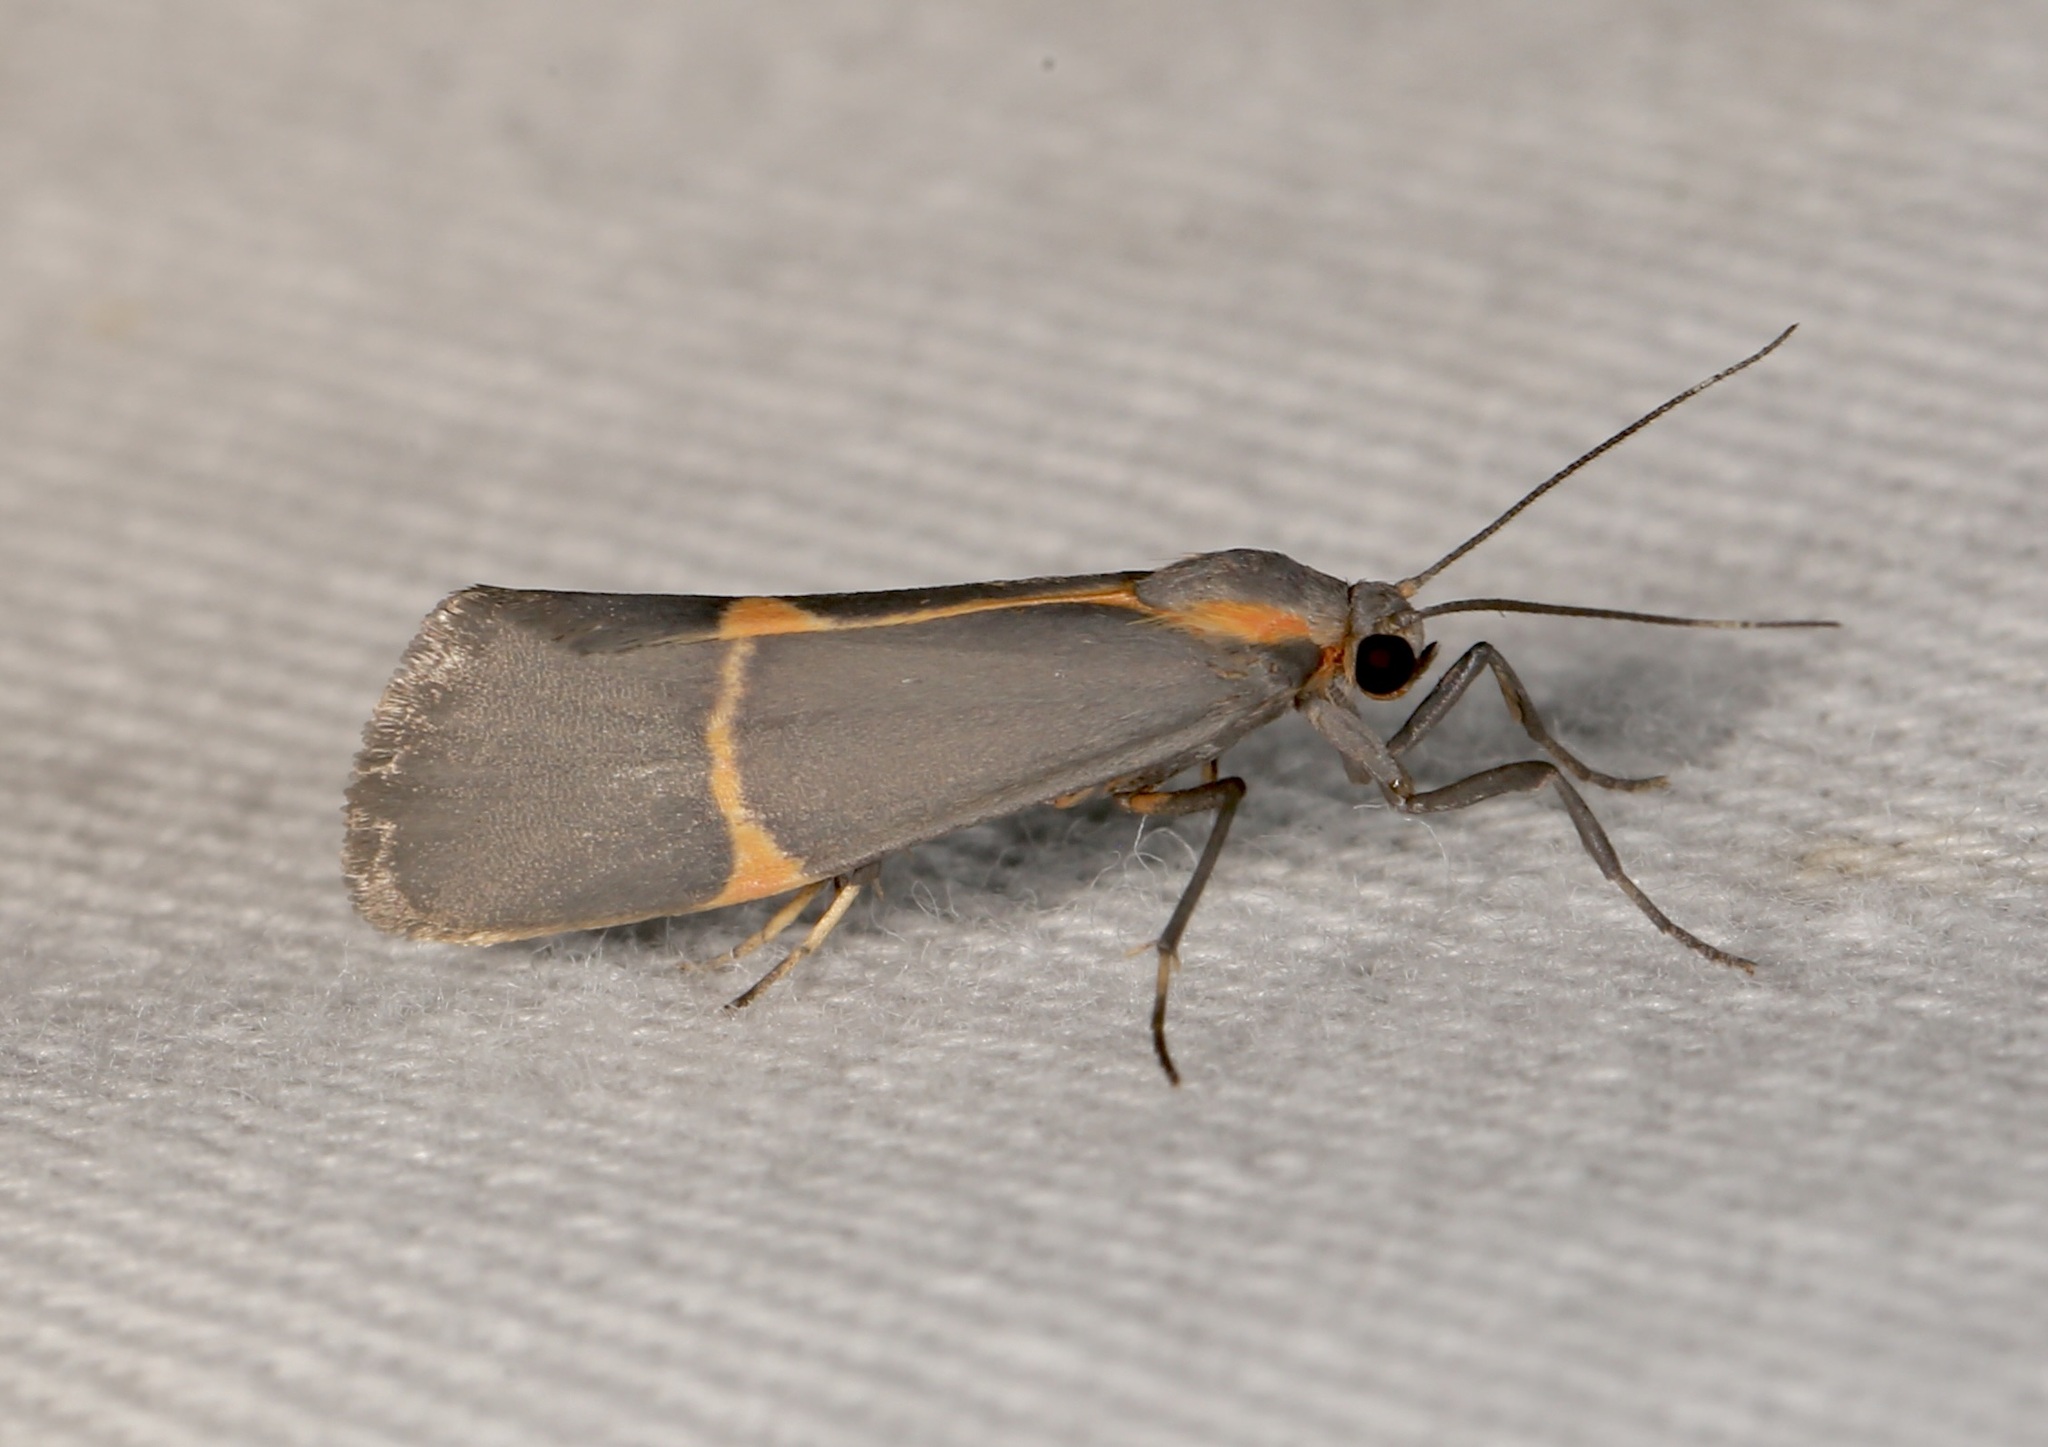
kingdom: Animalia
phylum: Arthropoda
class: Insecta
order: Lepidoptera
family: Erebidae
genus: Cisthene
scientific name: Cisthene barnesii
